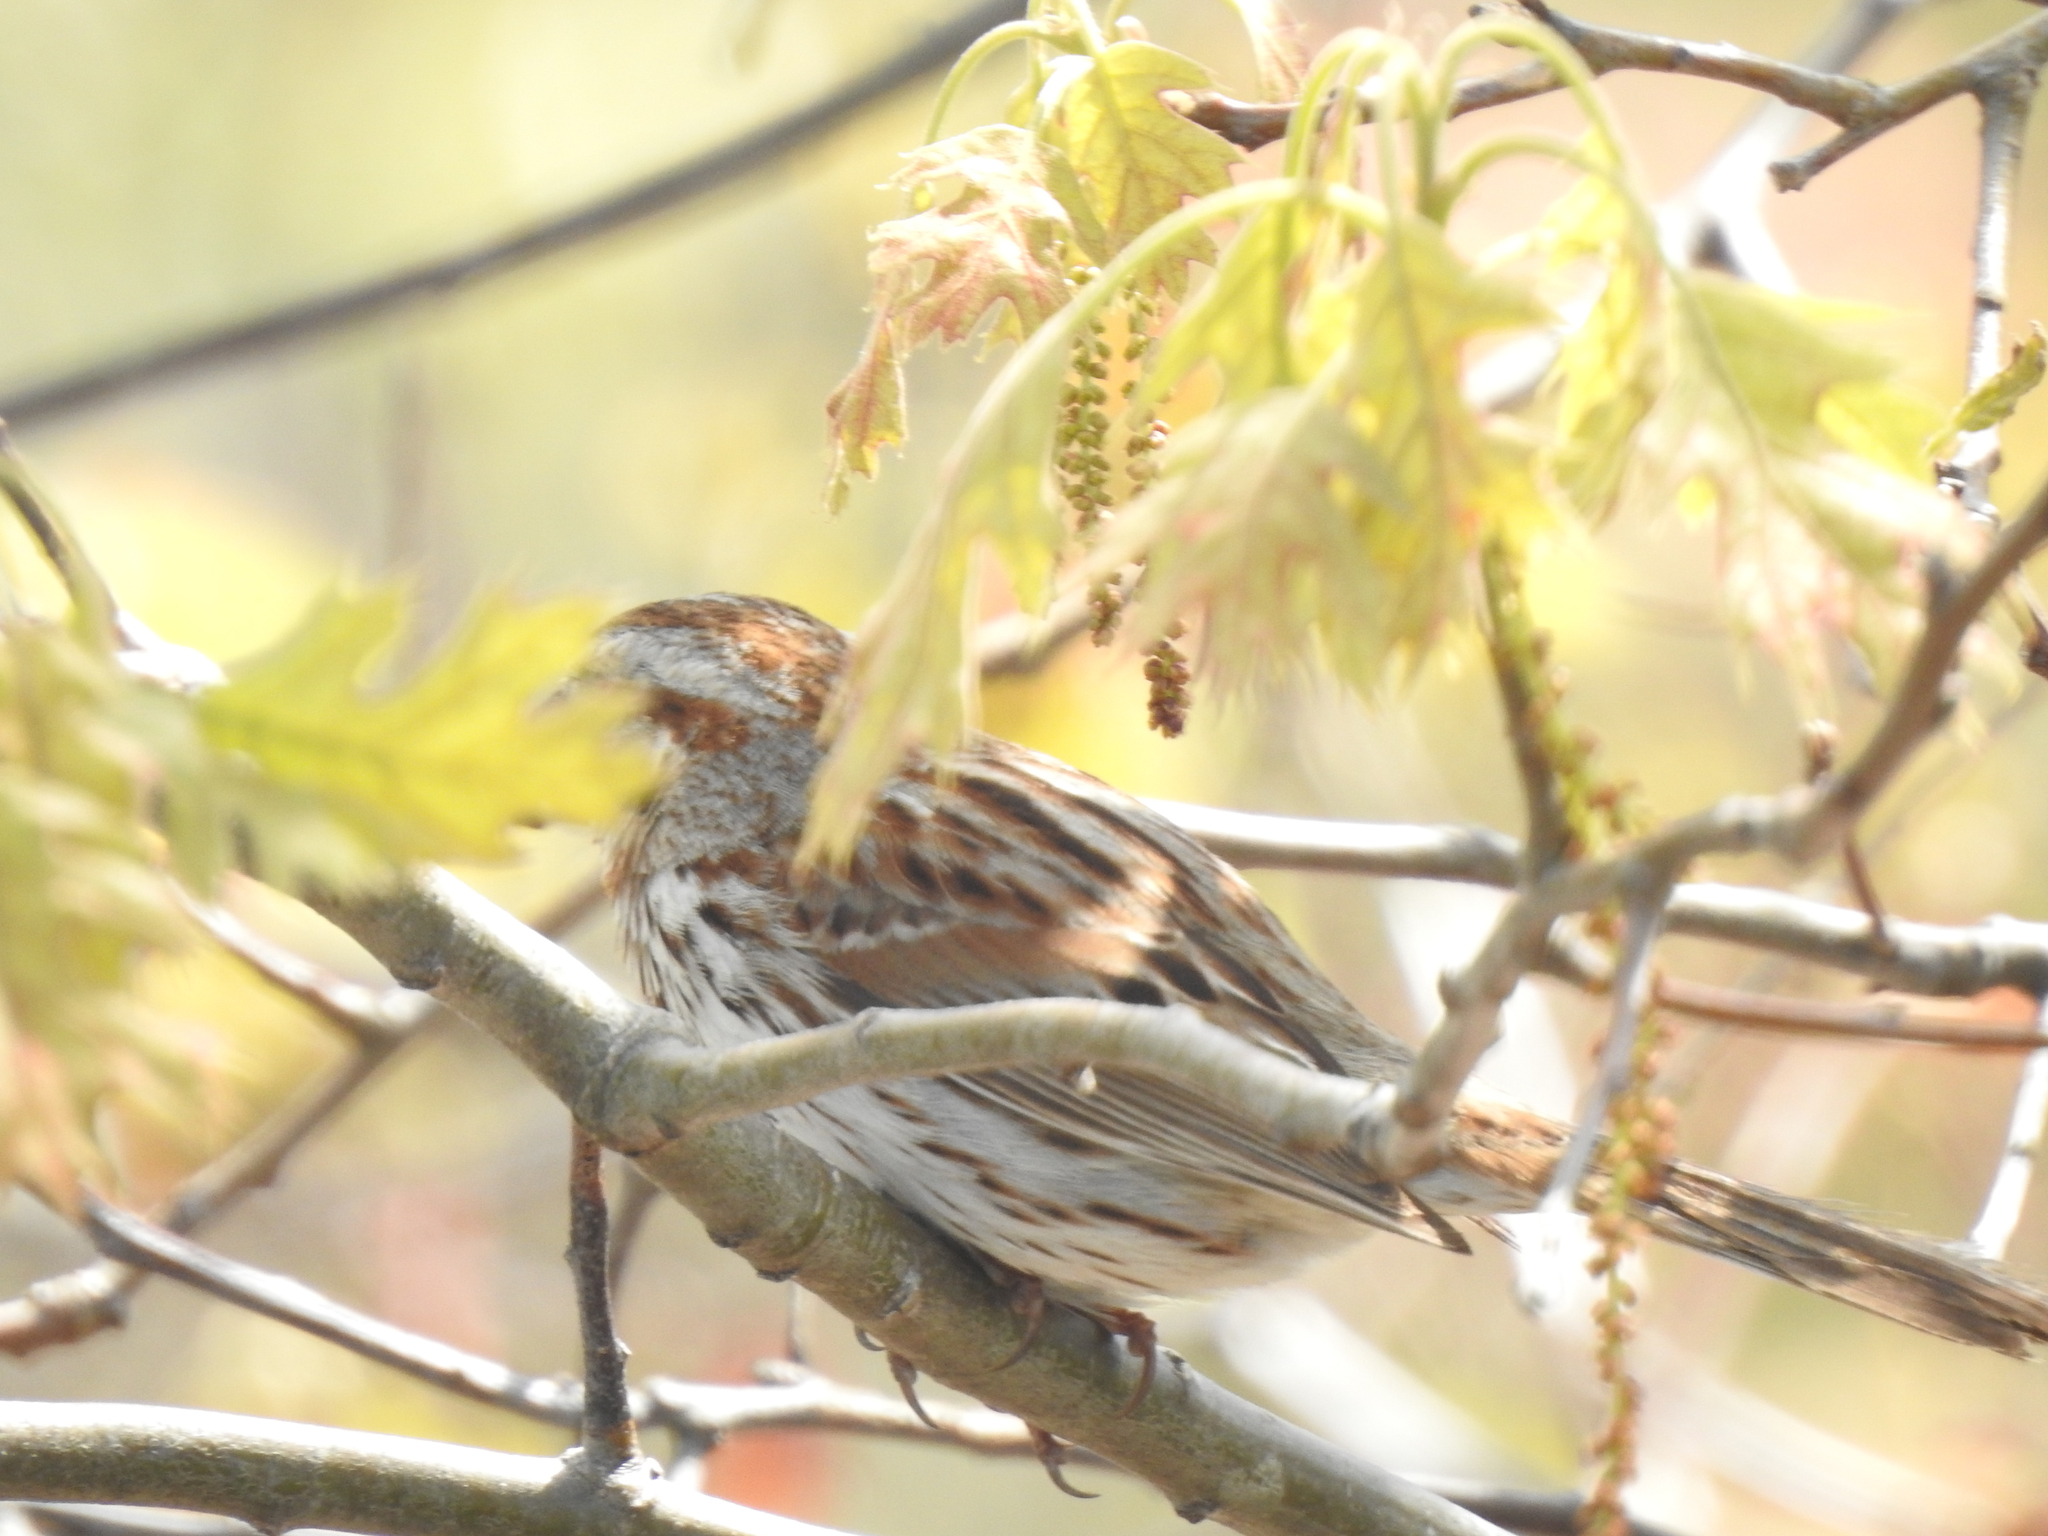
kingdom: Animalia
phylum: Chordata
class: Aves
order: Passeriformes
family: Passerellidae
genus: Melospiza
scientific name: Melospiza melodia
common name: Song sparrow
